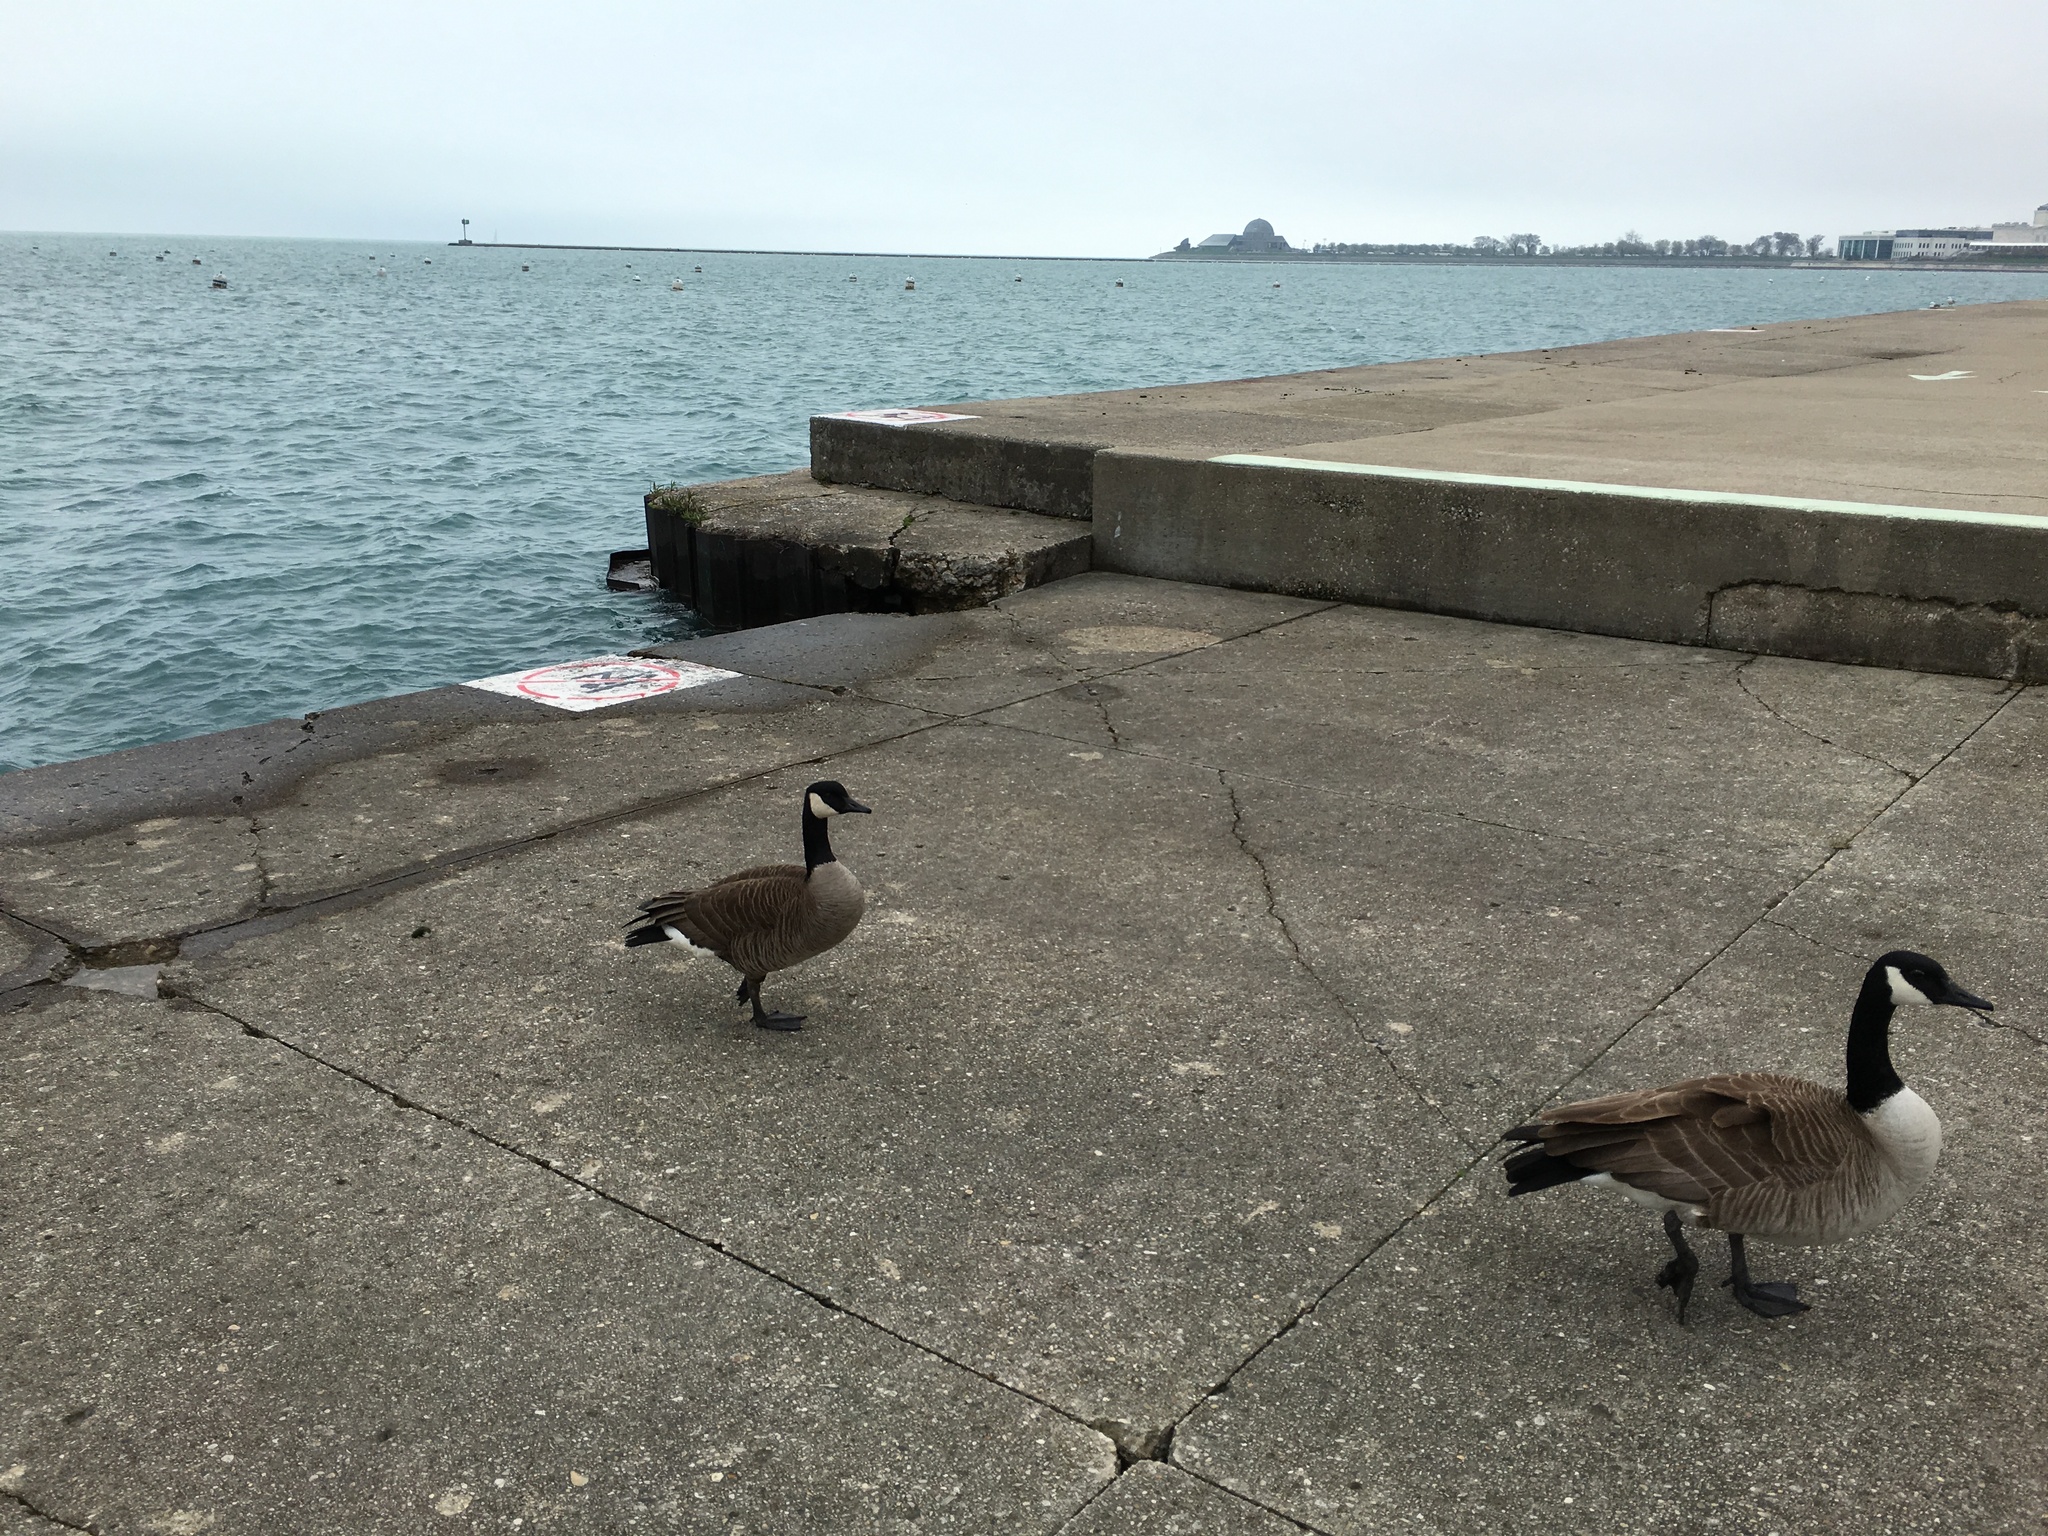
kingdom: Animalia
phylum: Chordata
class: Aves
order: Anseriformes
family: Anatidae
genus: Branta
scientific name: Branta canadensis
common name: Canada goose
